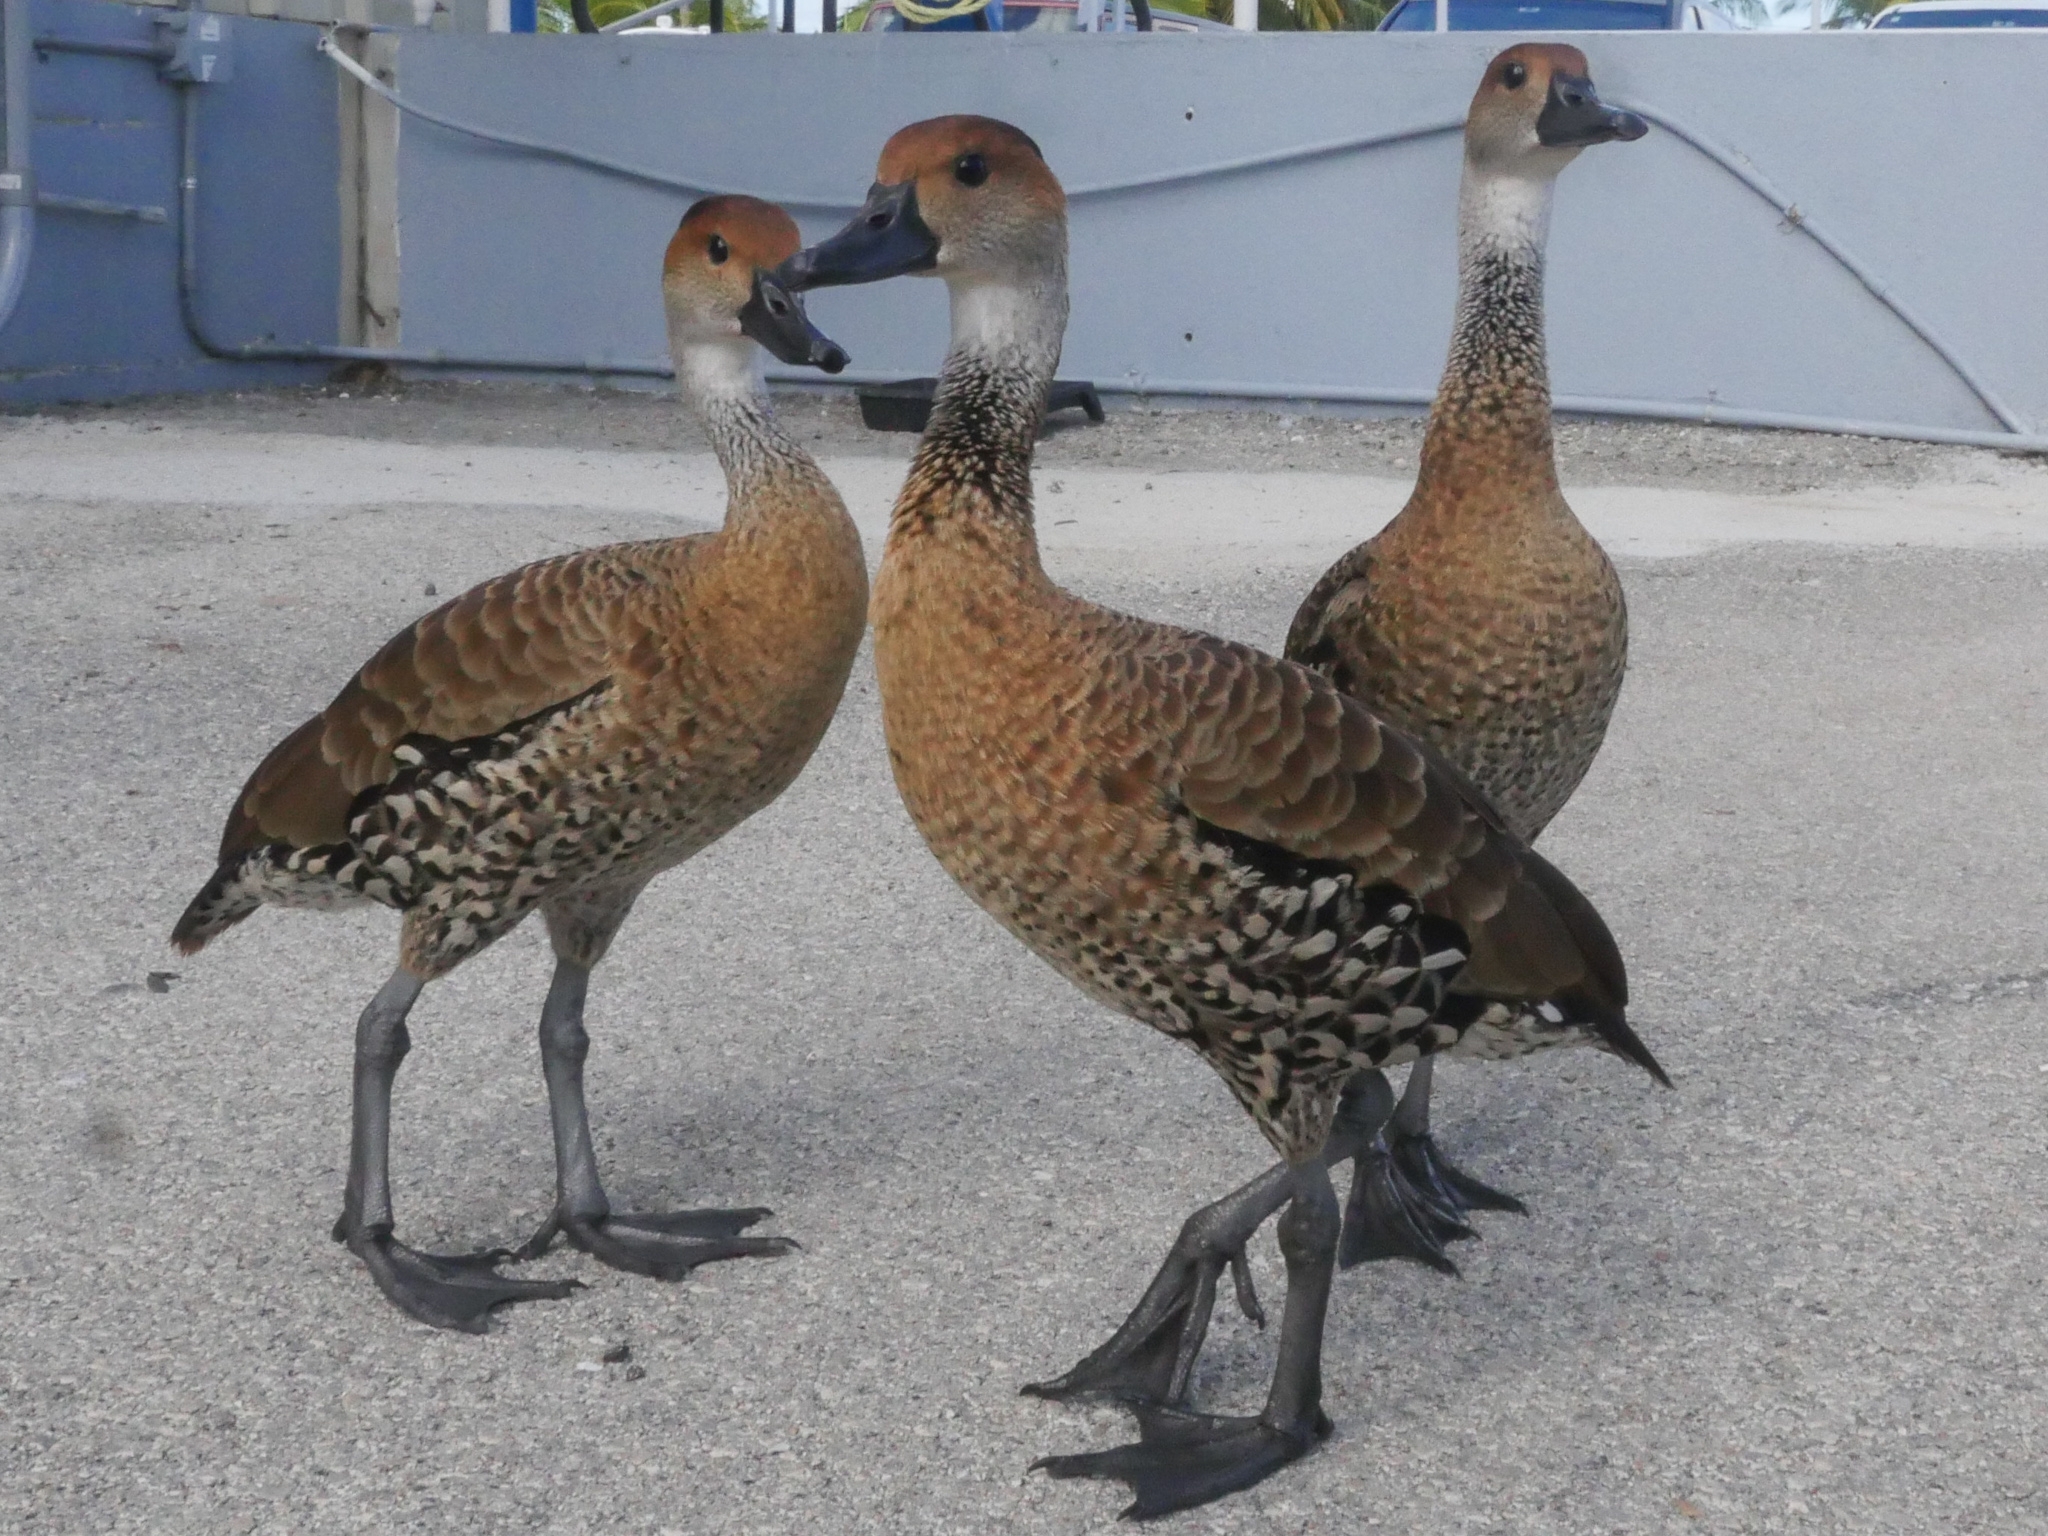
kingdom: Animalia
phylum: Chordata
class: Aves
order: Anseriformes
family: Anatidae
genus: Dendrocygna
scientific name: Dendrocygna arborea
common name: West indian whistling duck
